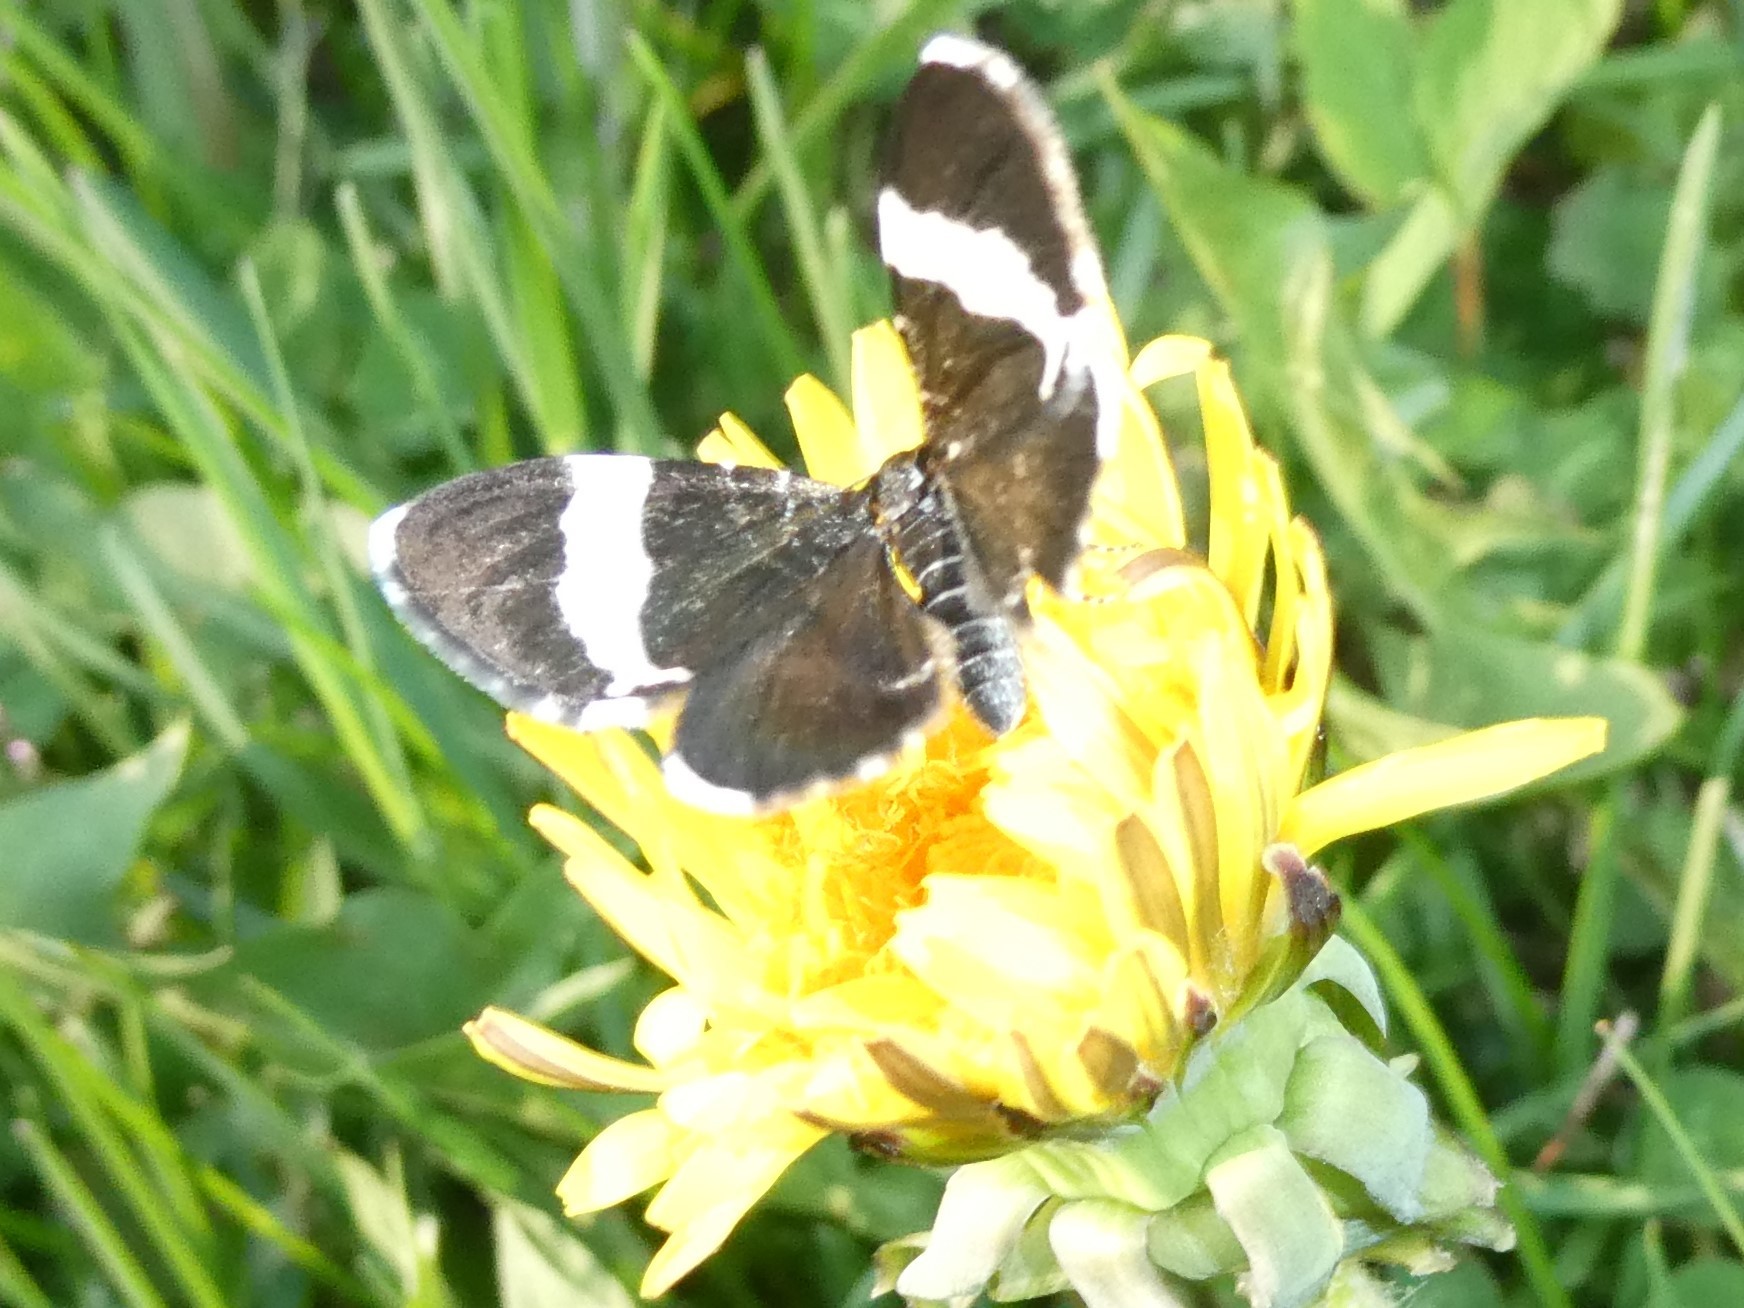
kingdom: Animalia
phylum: Arthropoda
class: Insecta
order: Lepidoptera
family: Geometridae
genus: Trichodezia
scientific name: Trichodezia albovittata
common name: White striped black
